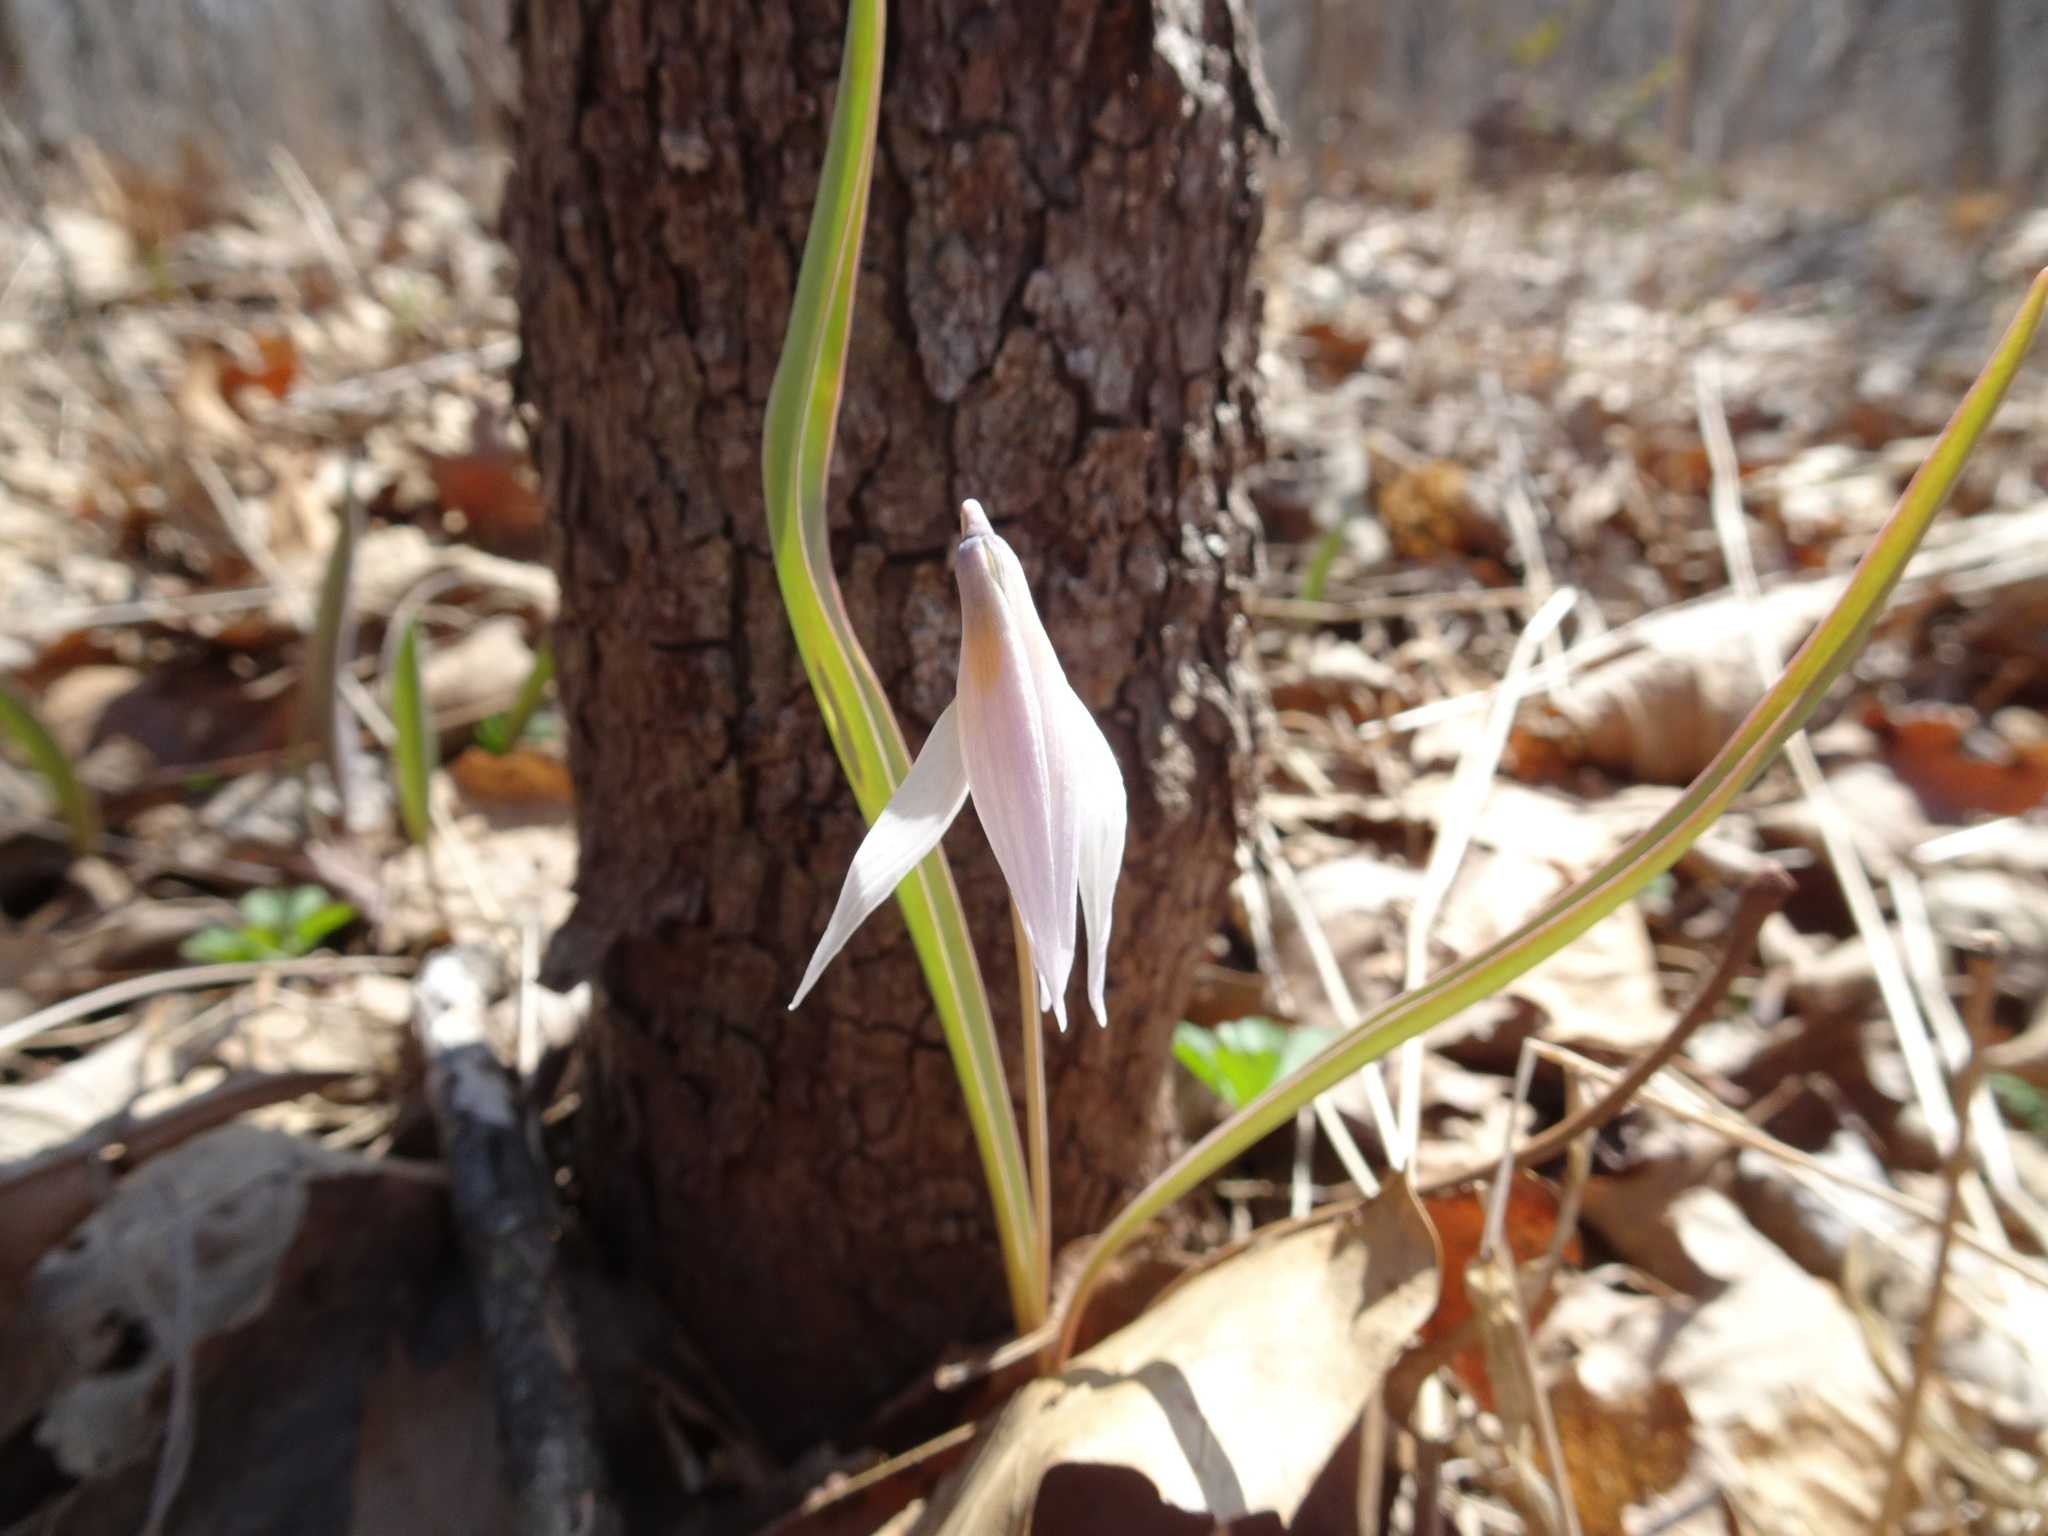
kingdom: Plantae
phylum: Tracheophyta
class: Liliopsida
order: Liliales
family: Liliaceae
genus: Erythronium
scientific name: Erythronium mesochoreum
